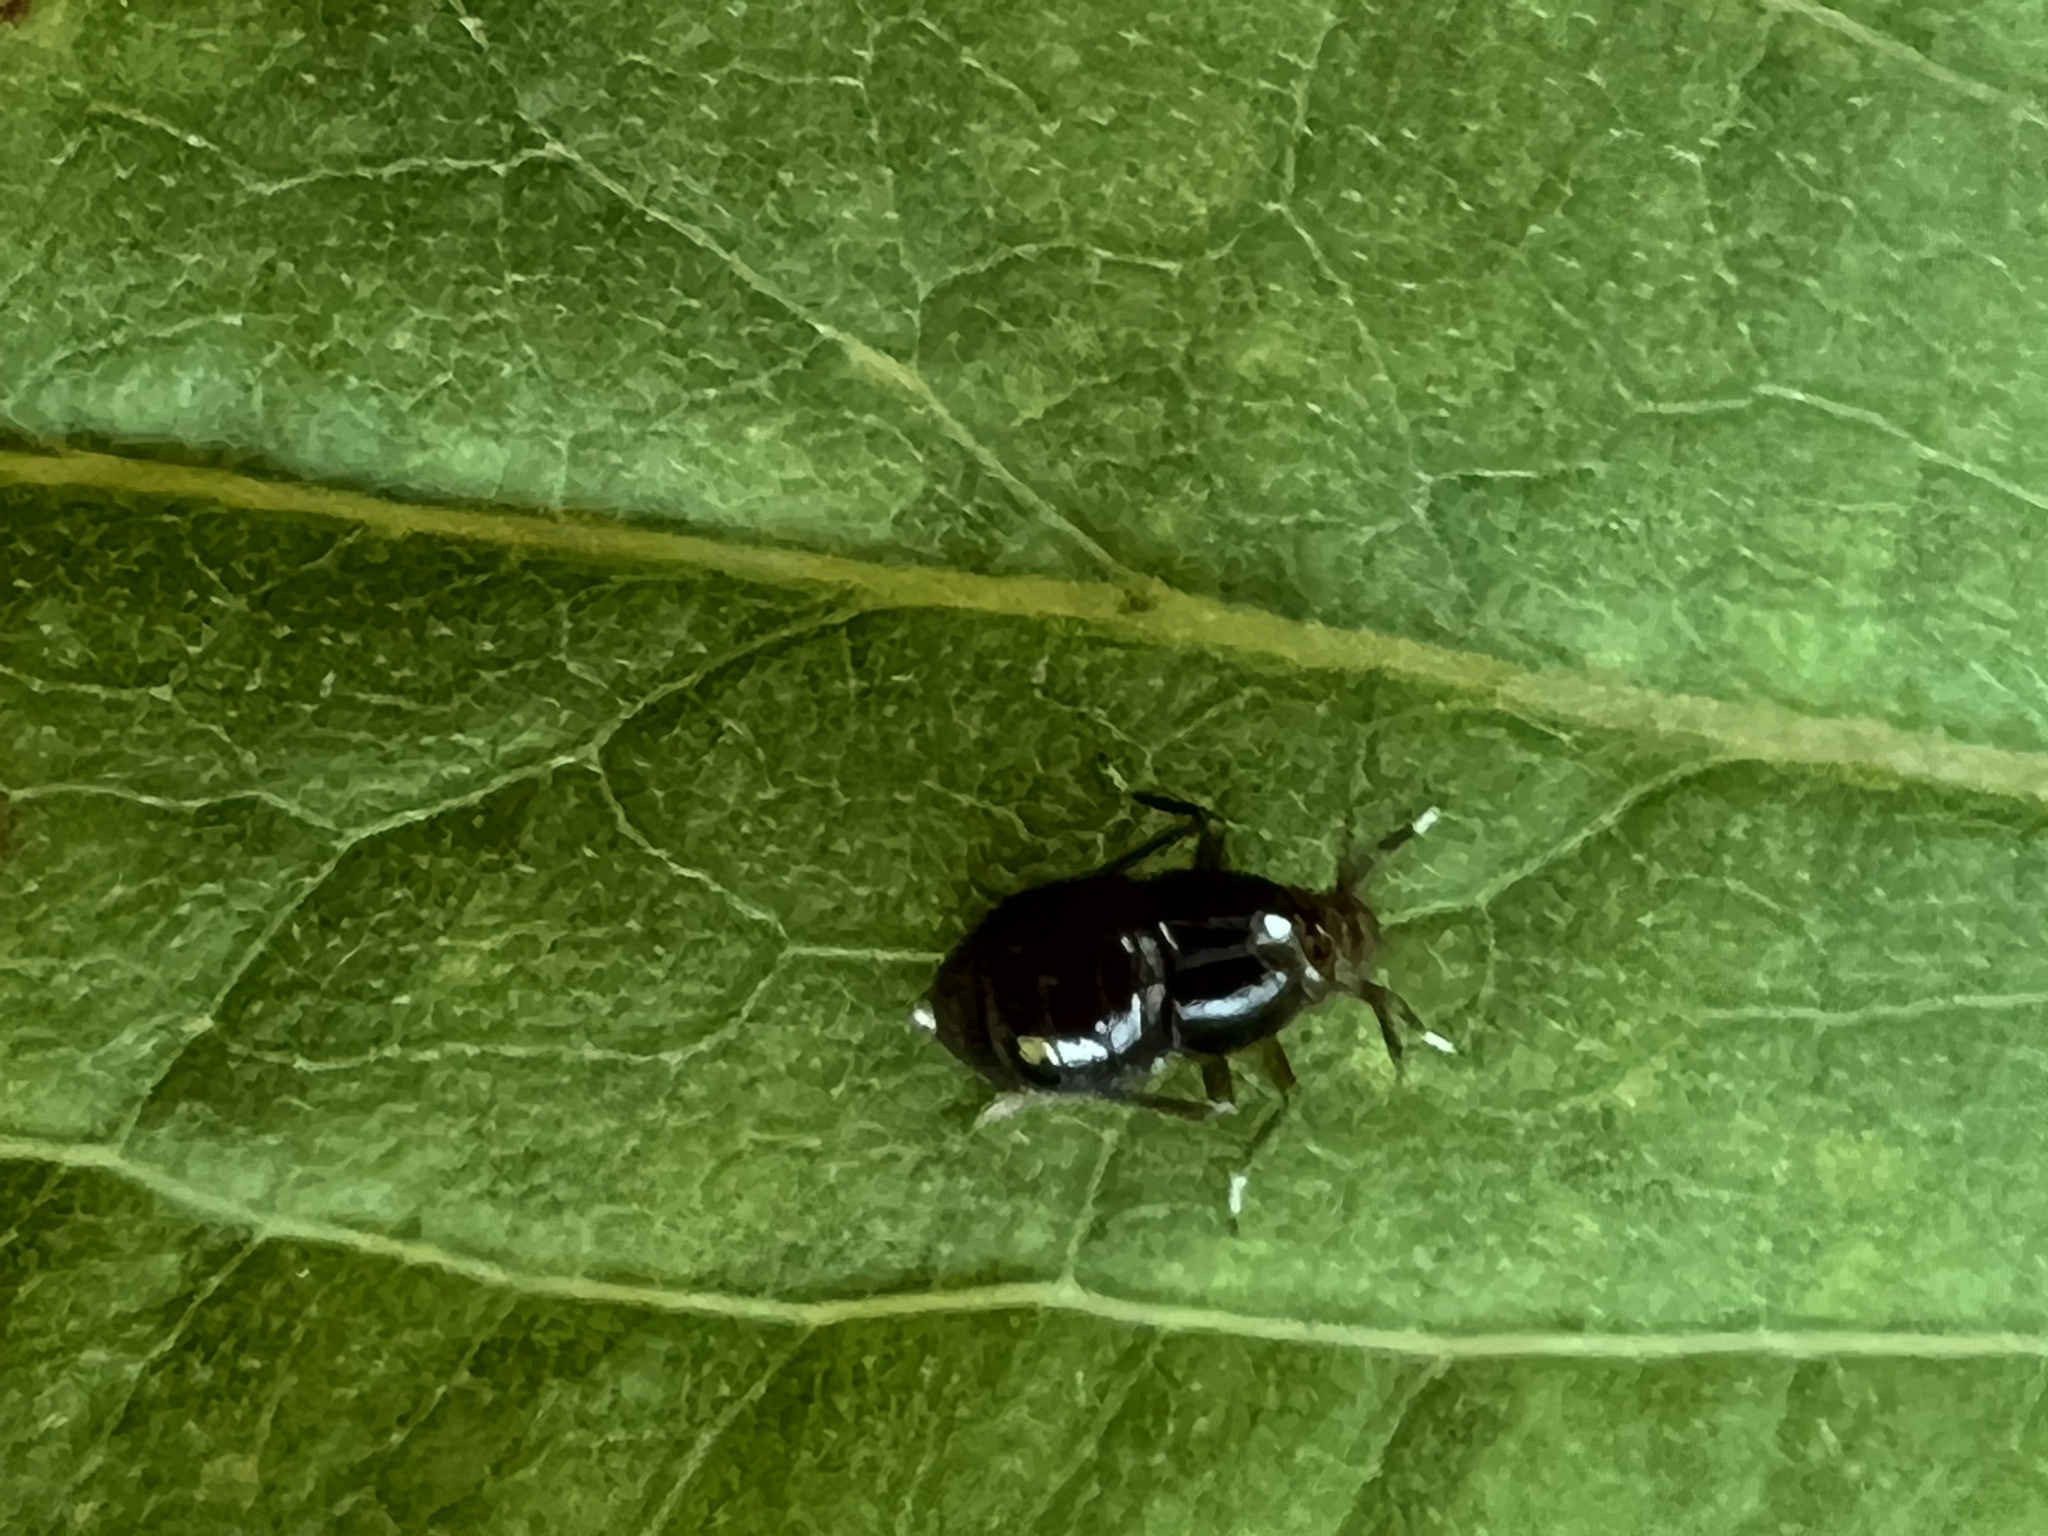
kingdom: Animalia
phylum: Arthropoda
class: Insecta
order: Hemiptera
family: Delphacidae
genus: Pissonotus
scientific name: Pissonotus marginatus
